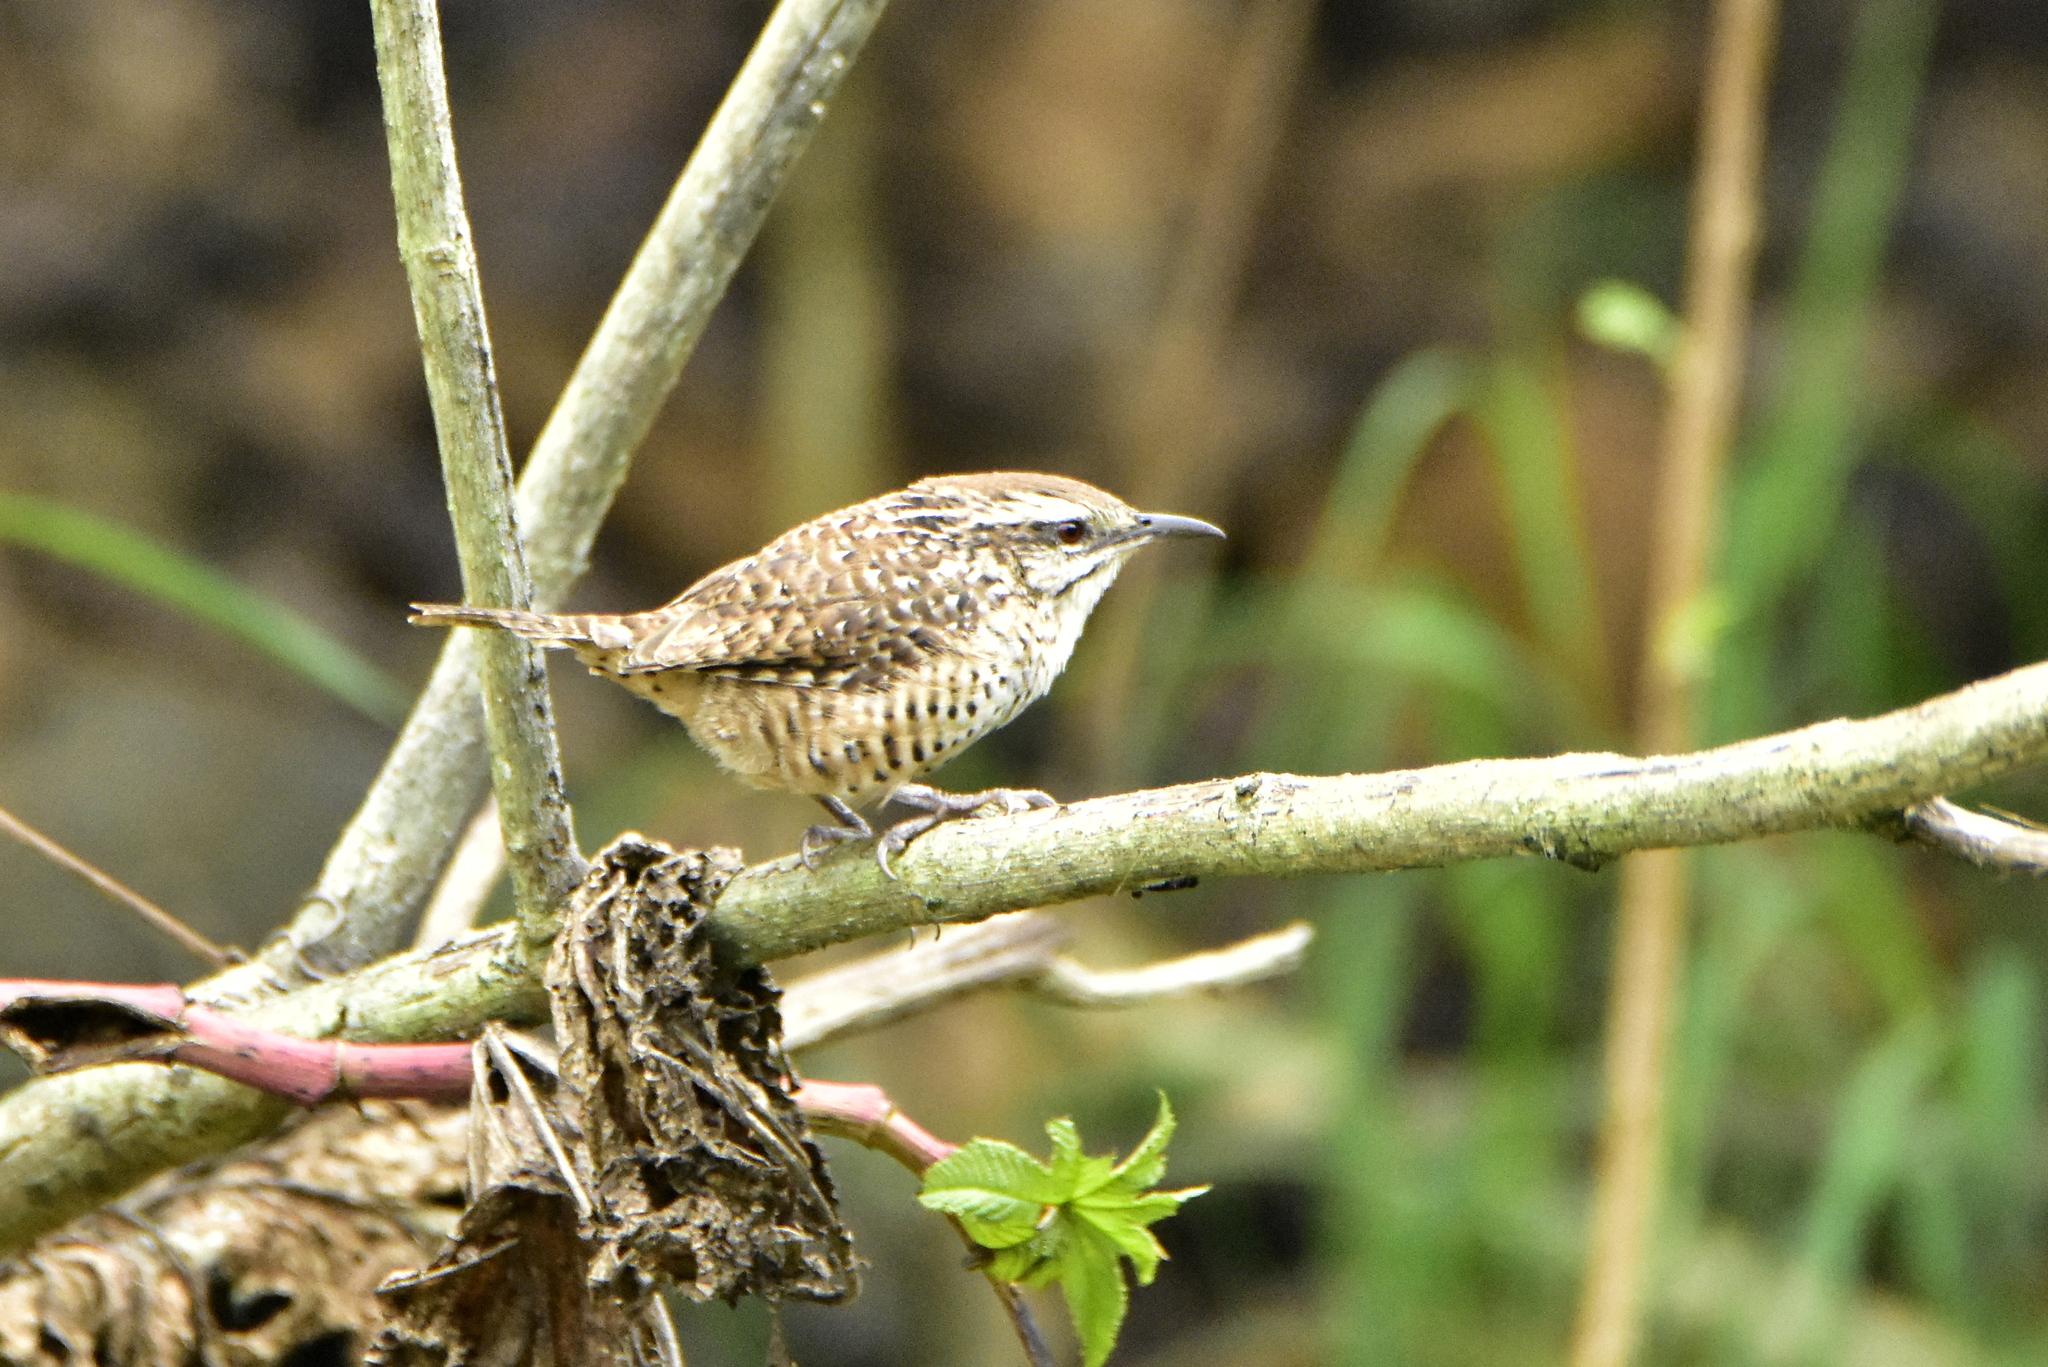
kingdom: Animalia
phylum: Chordata
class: Aves
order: Passeriformes
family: Troglodytidae
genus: Campylorhynchus
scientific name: Campylorhynchus gularis
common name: Spotted wren
